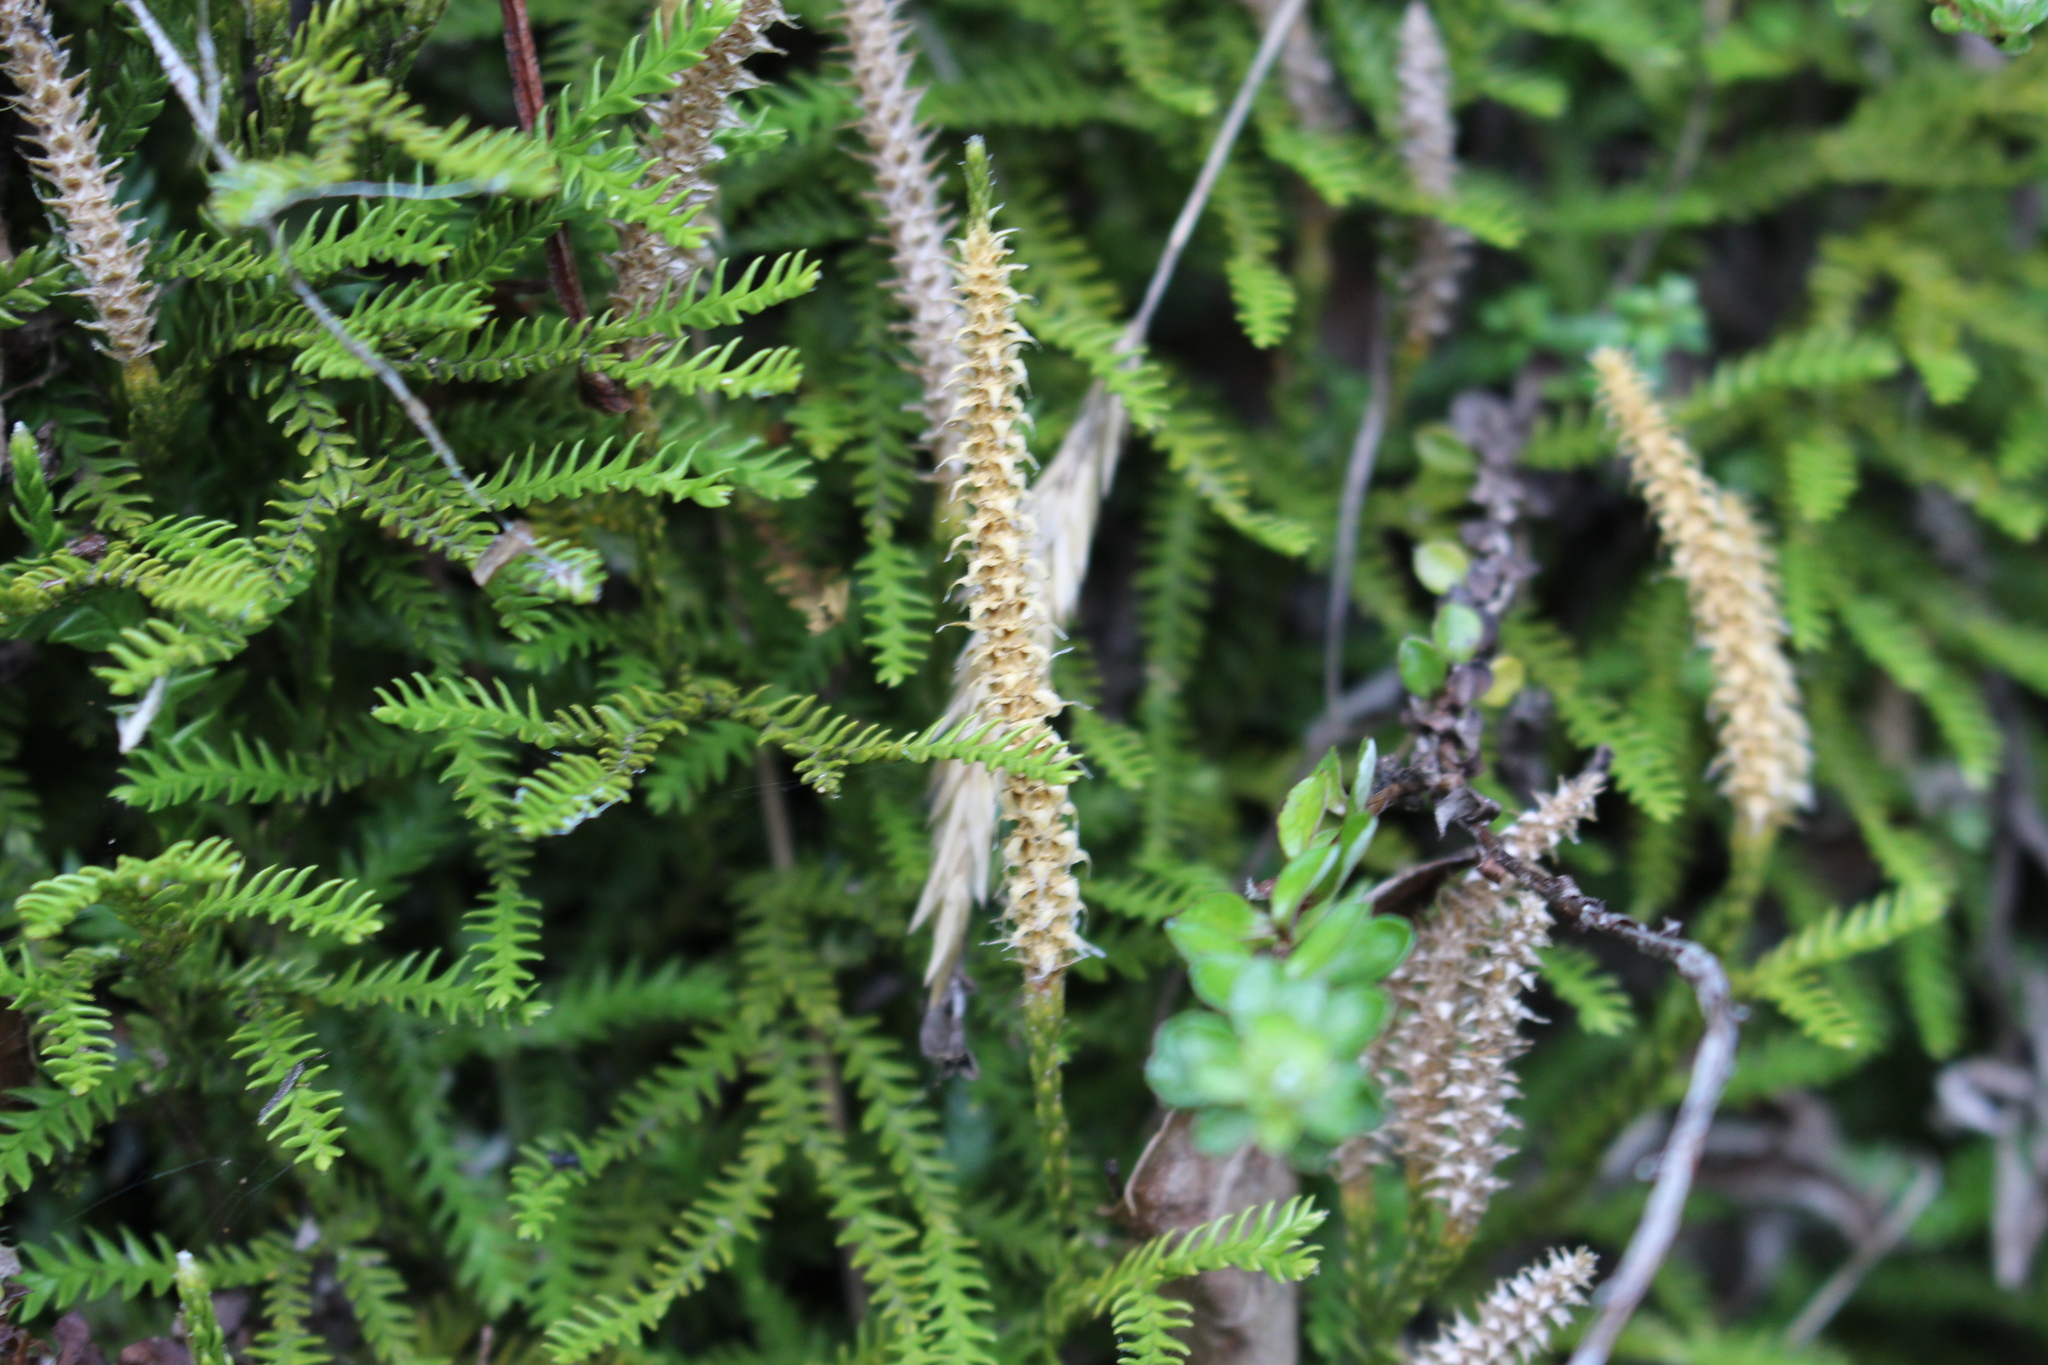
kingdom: Plantae
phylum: Tracheophyta
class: Lycopodiopsida
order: Lycopodiales
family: Lycopodiaceae
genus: Diphasium
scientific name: Diphasium scariosum
